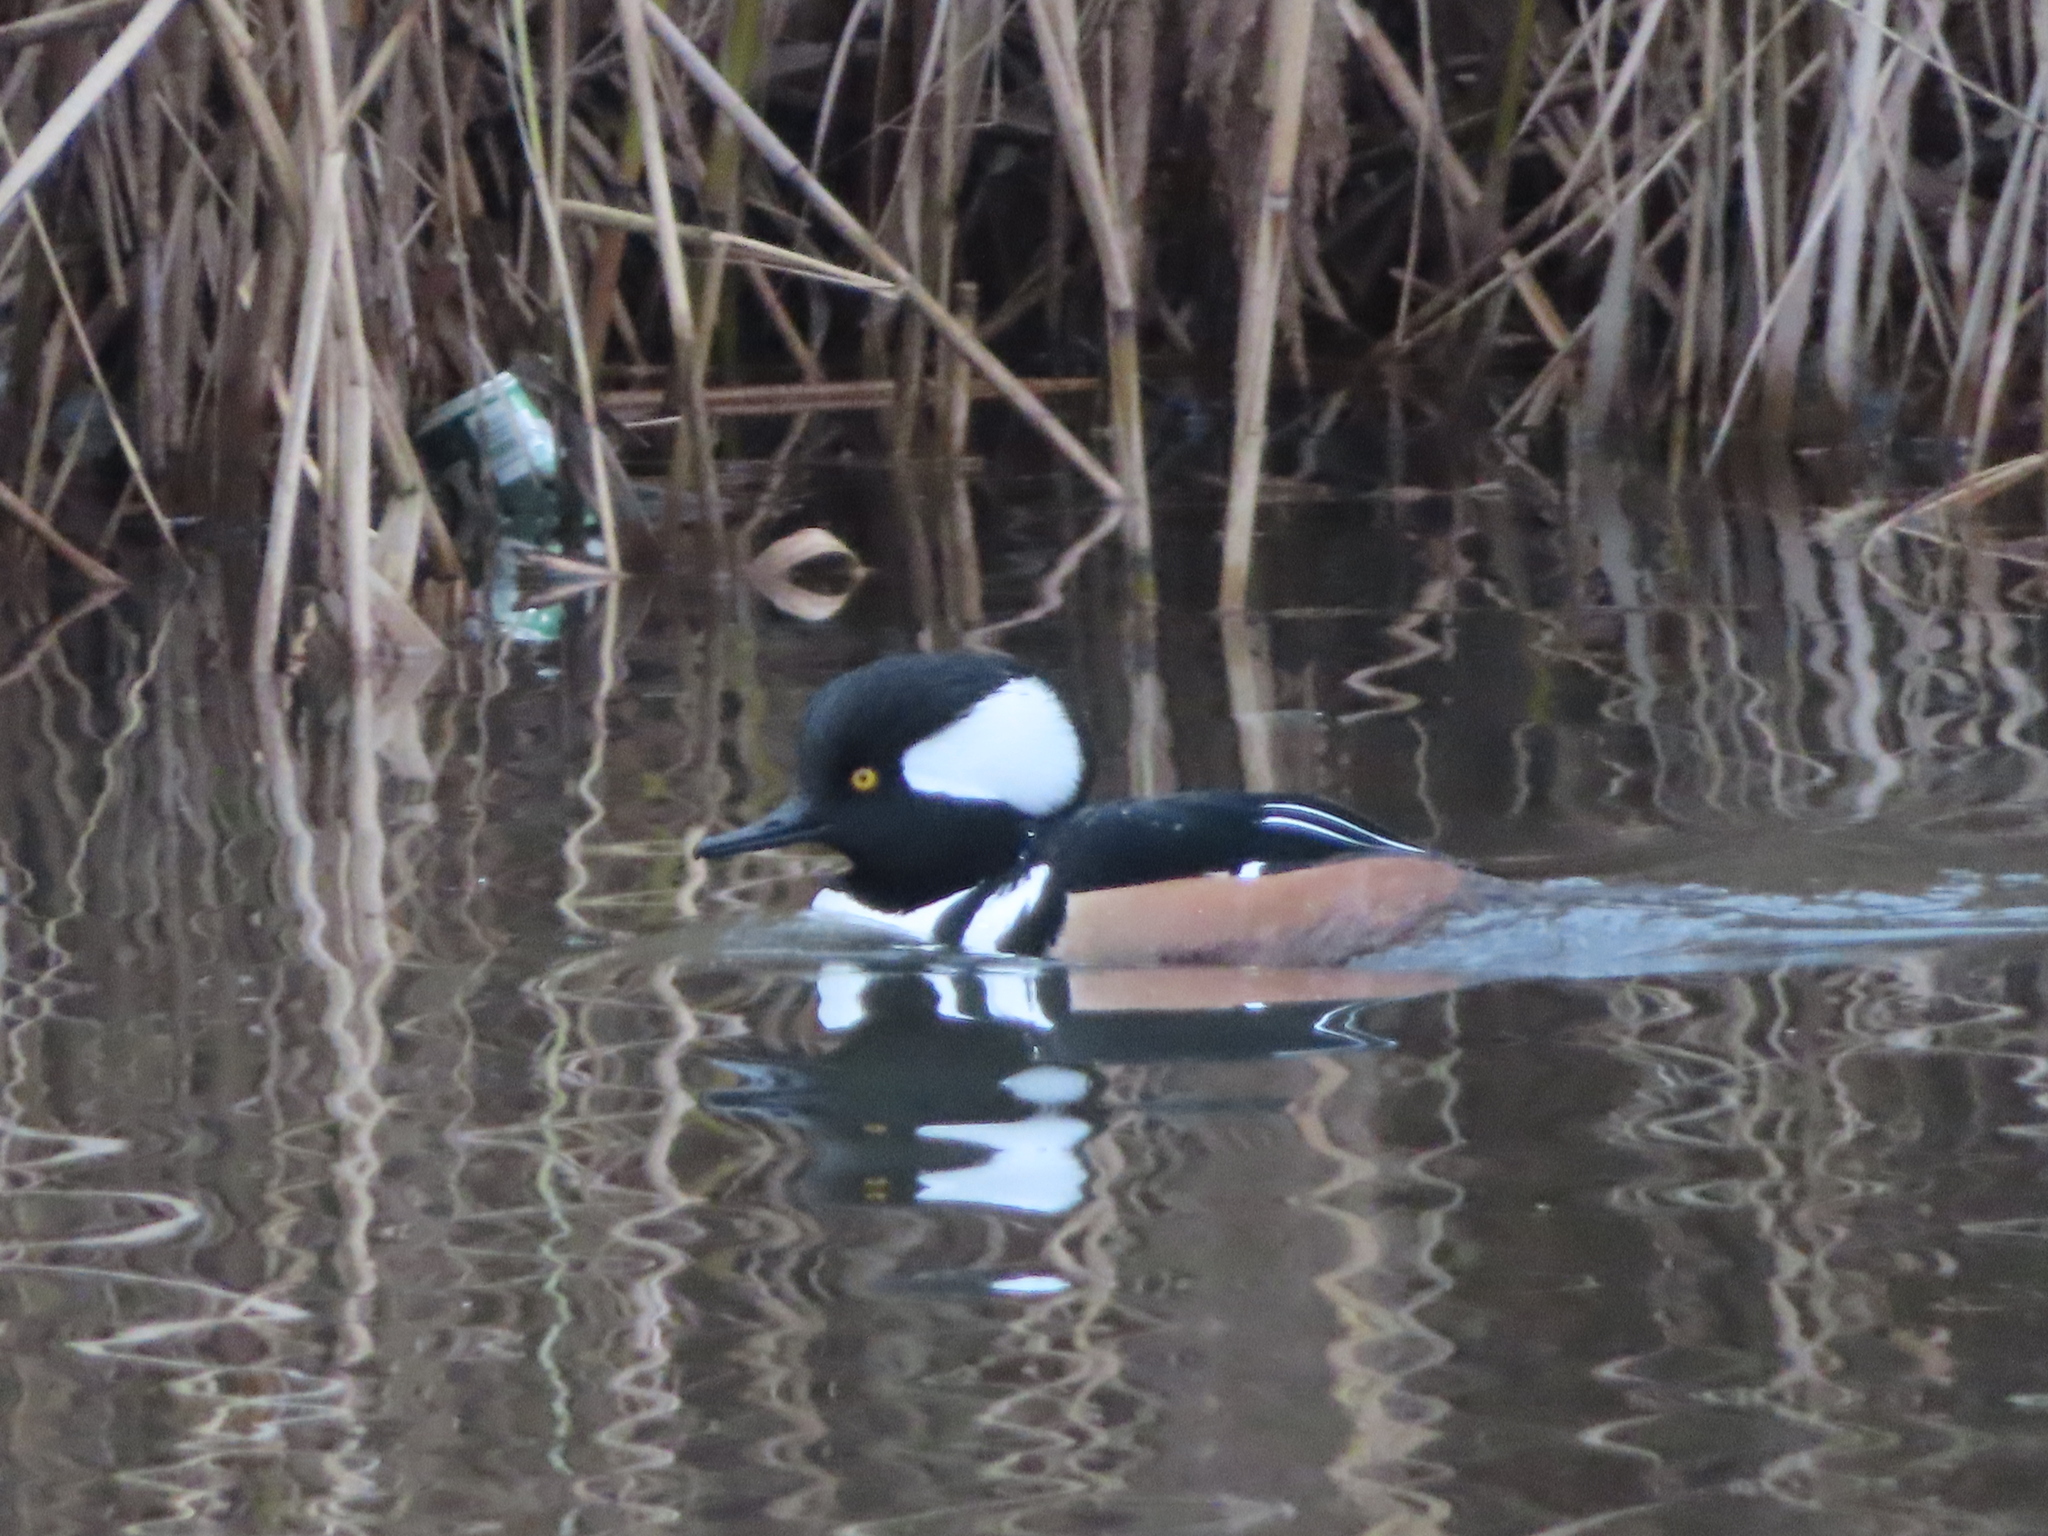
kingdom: Animalia
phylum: Chordata
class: Aves
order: Anseriformes
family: Anatidae
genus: Lophodytes
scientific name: Lophodytes cucullatus
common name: Hooded merganser
